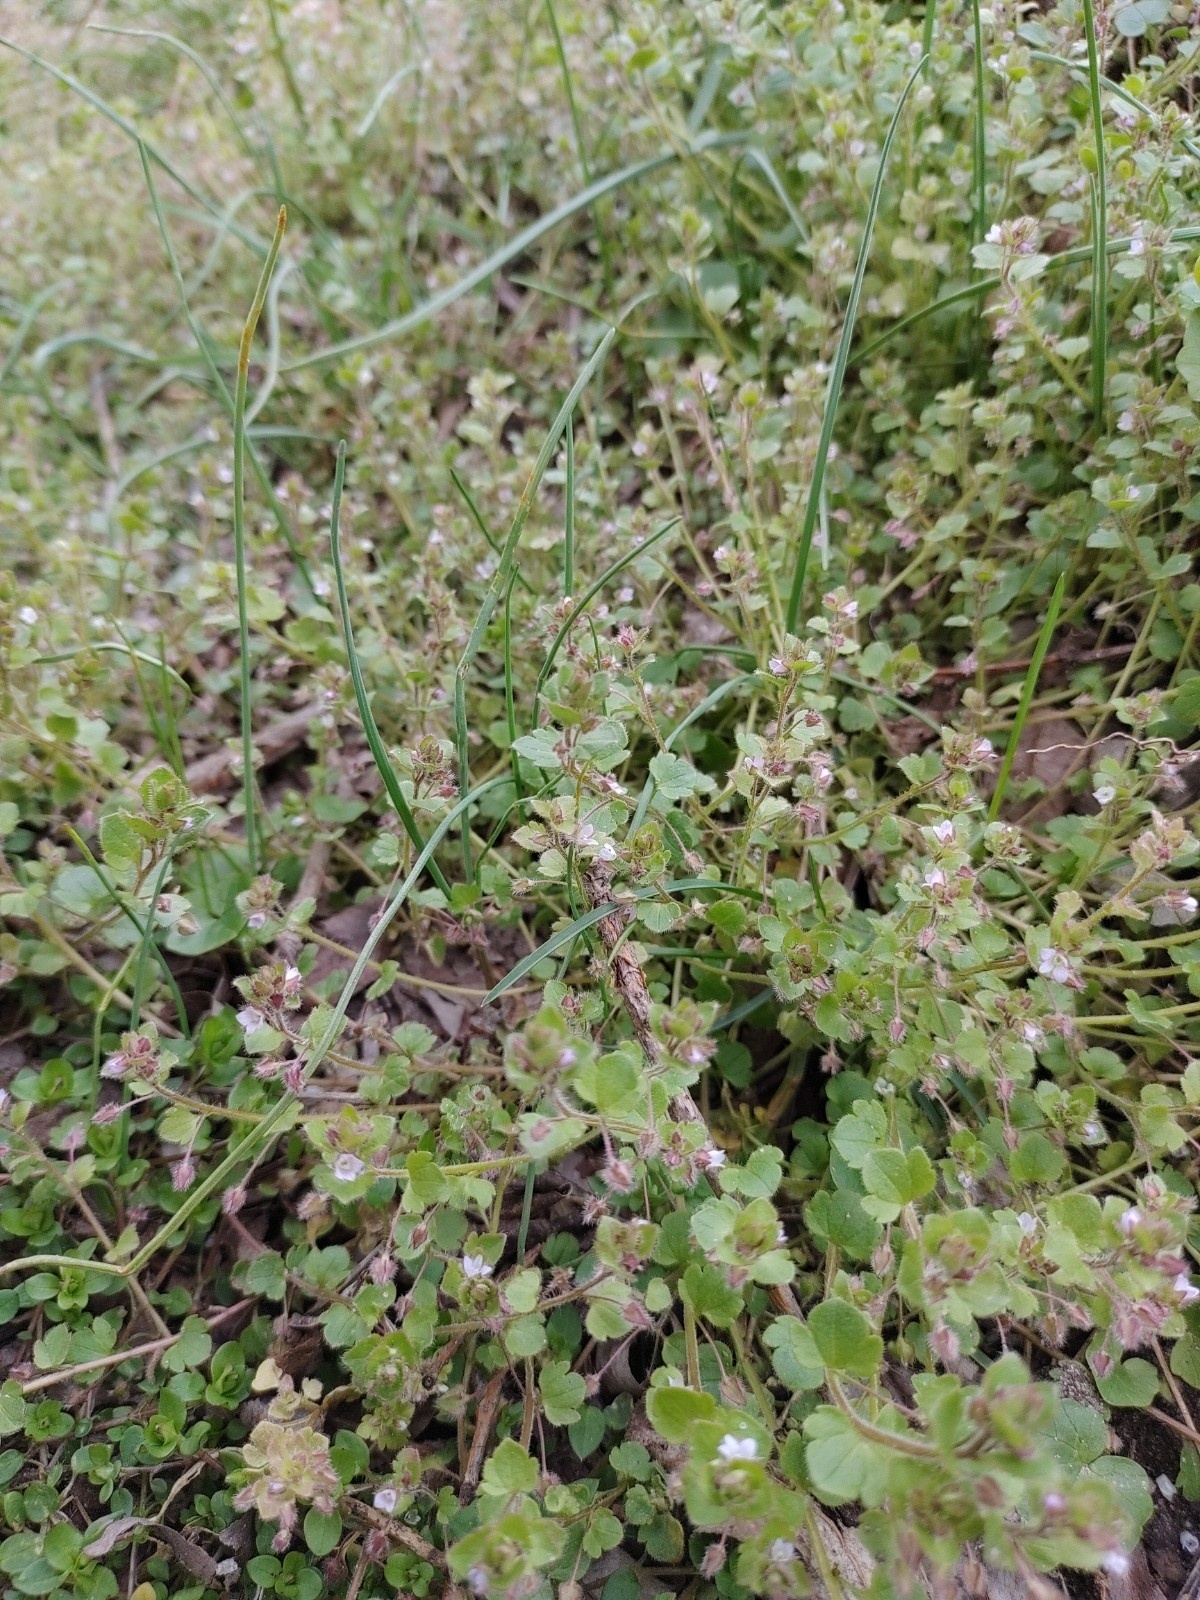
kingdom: Plantae
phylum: Tracheophyta
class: Magnoliopsida
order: Lamiales
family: Plantaginaceae
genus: Veronica
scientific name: Veronica sublobata
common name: False ivy-leaved speedwell
